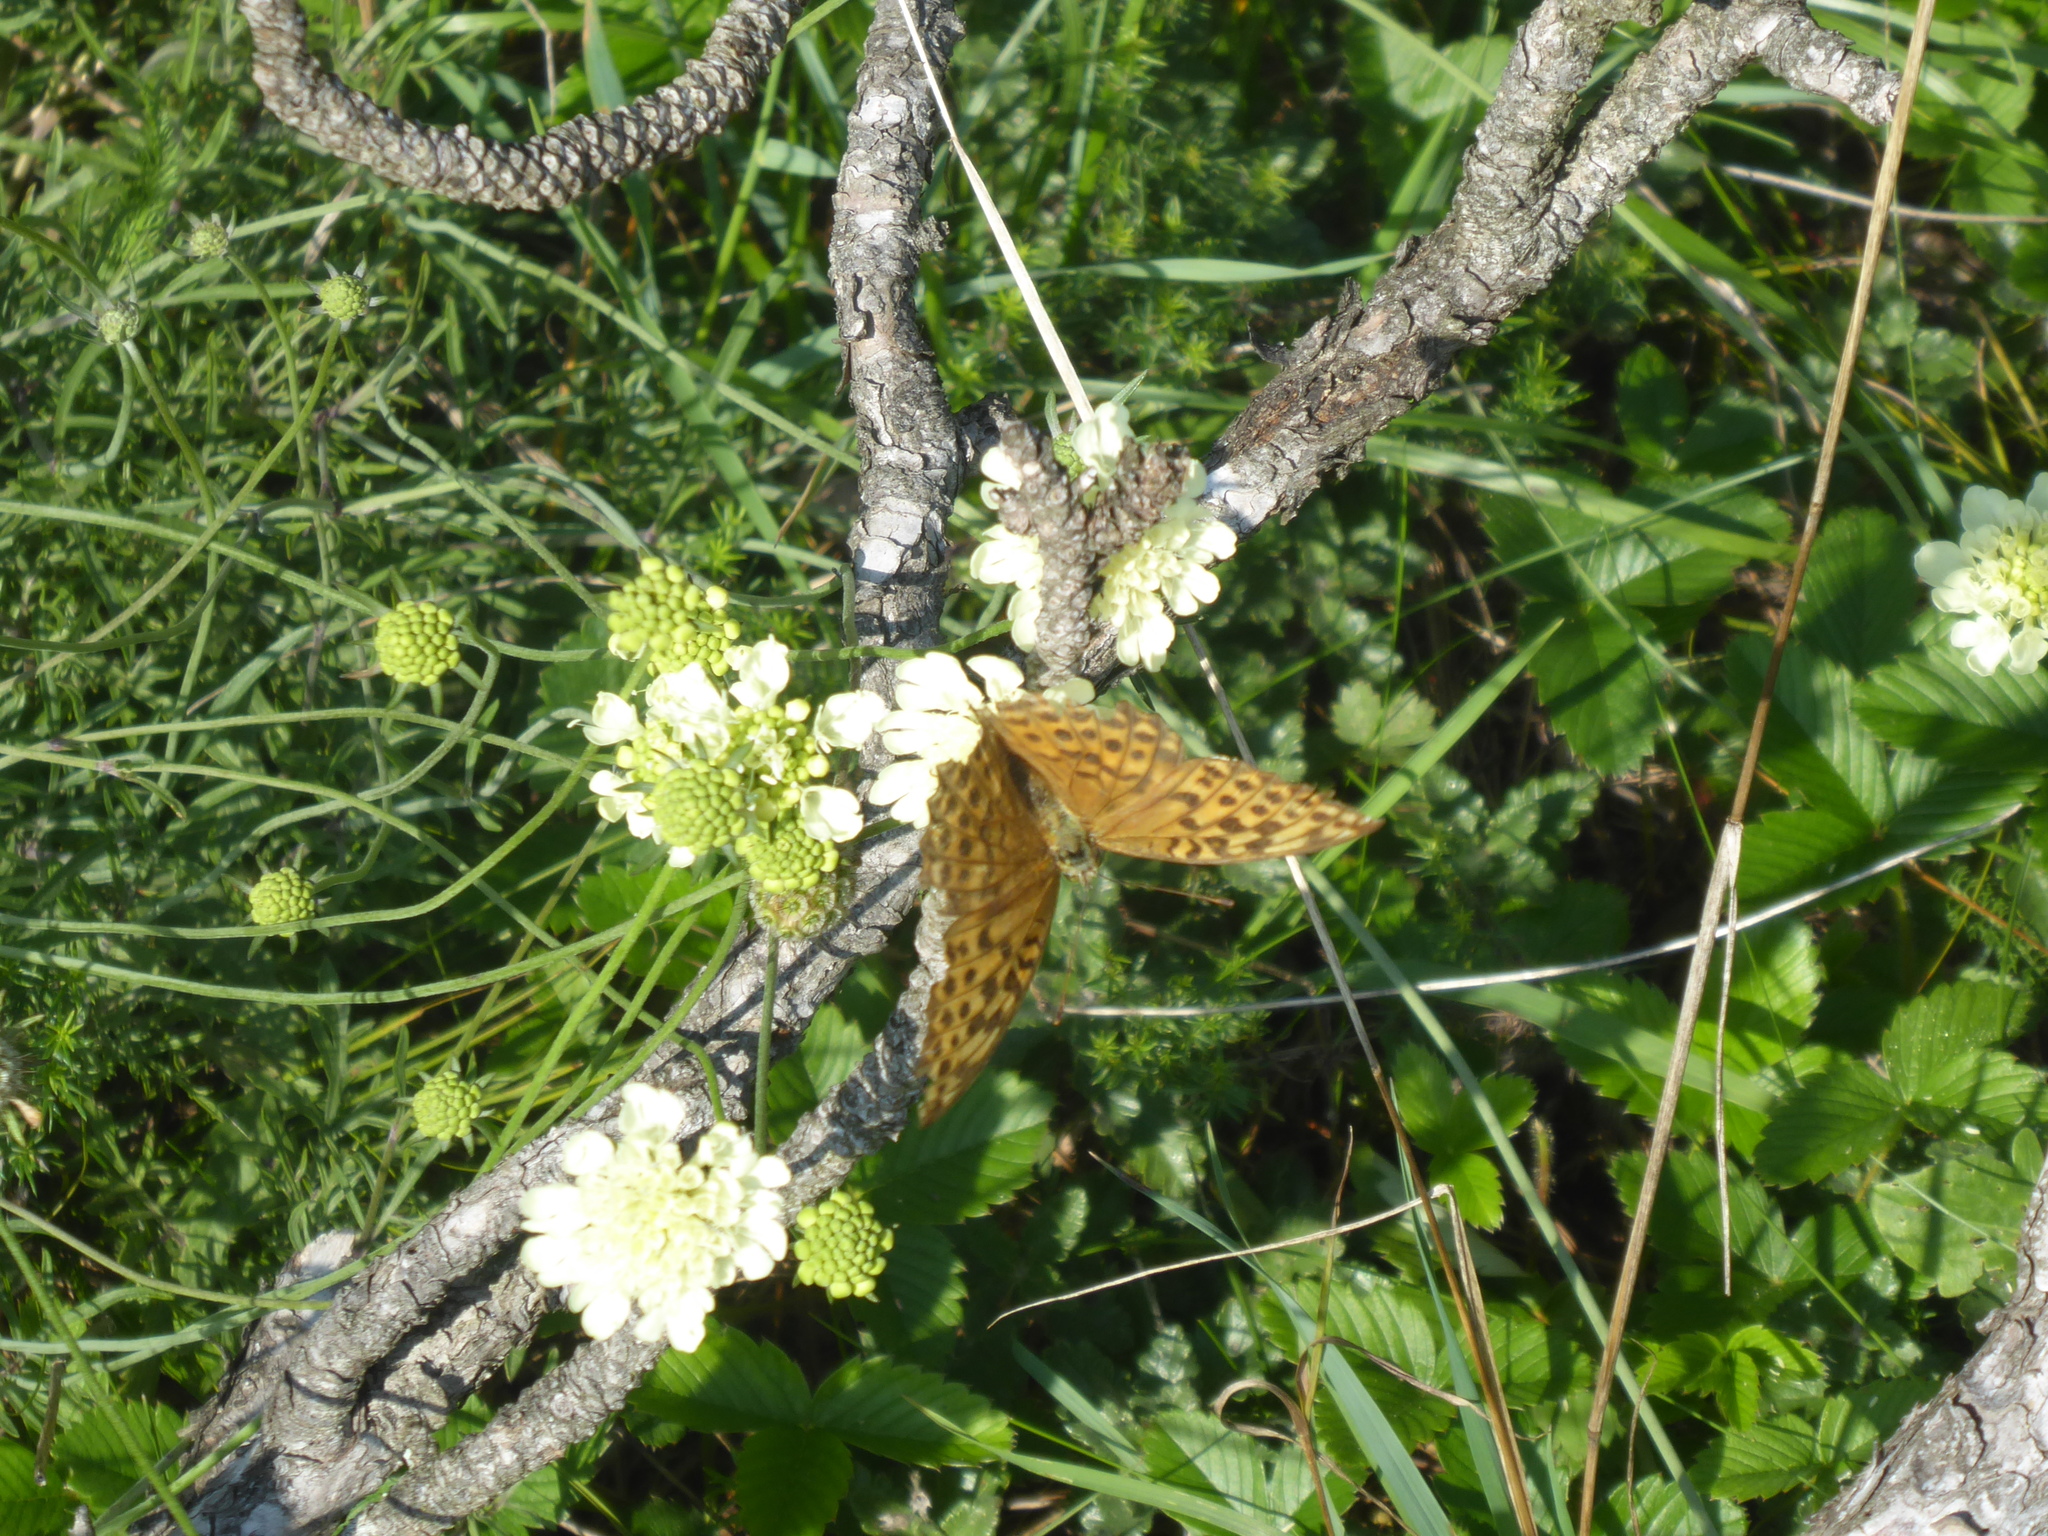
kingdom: Animalia
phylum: Arthropoda
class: Insecta
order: Lepidoptera
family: Nymphalidae
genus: Argynnis
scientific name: Argynnis paphia
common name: Silver-washed fritillary
